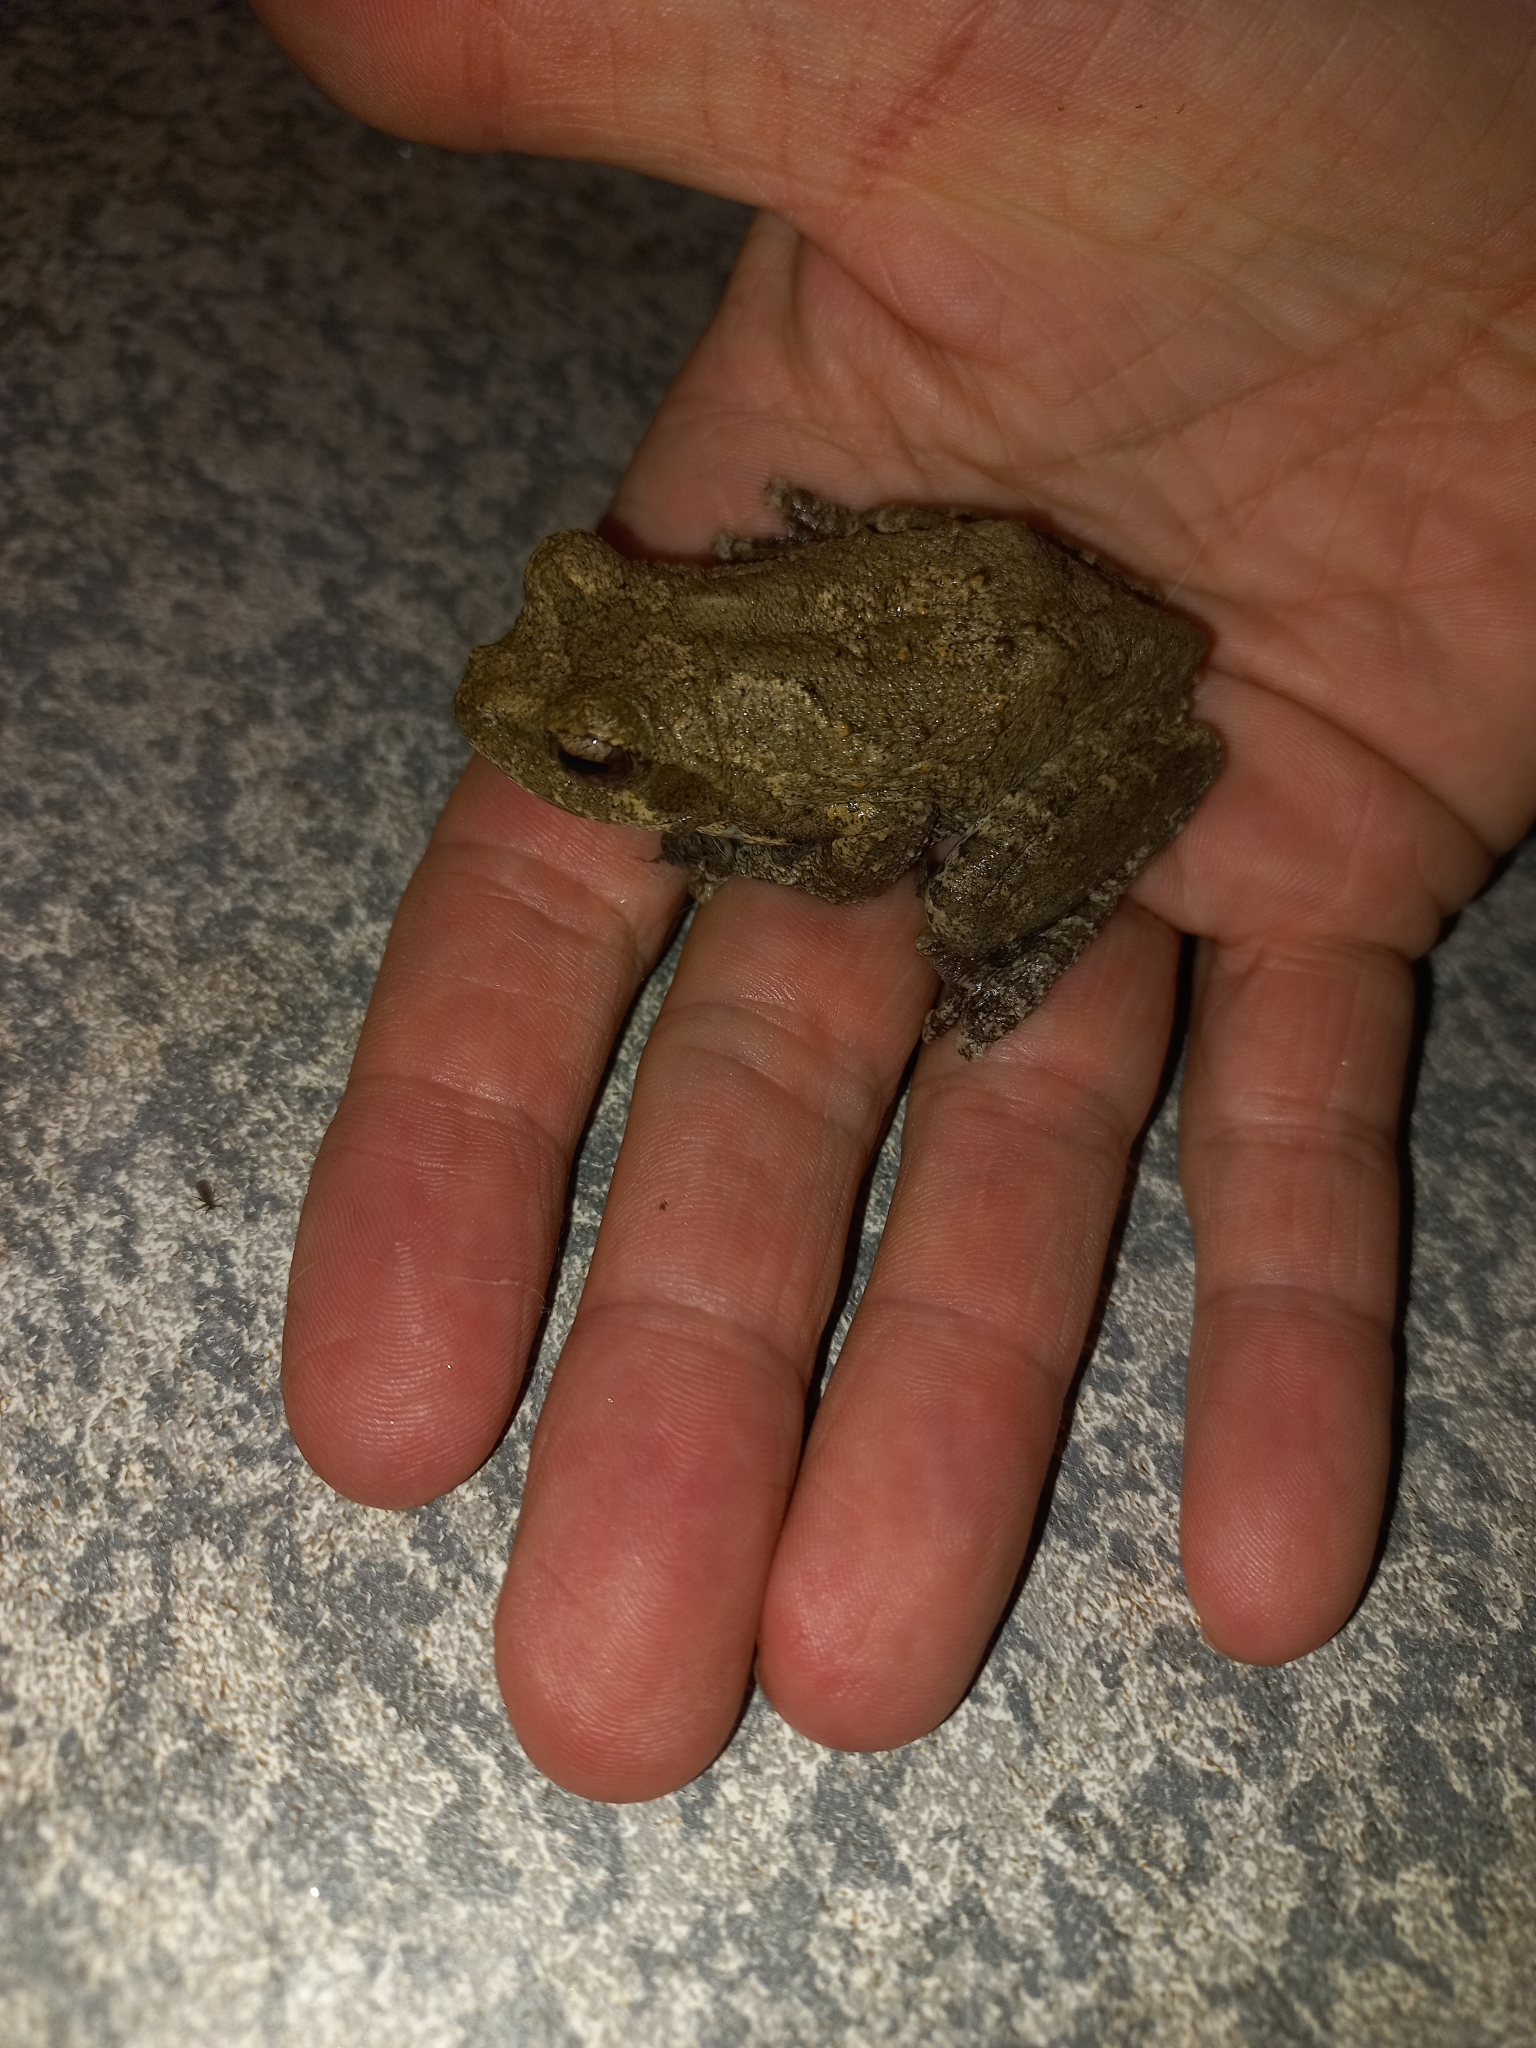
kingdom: Animalia
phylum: Chordata
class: Amphibia
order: Anura
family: Rhacophoridae
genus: Chiromantis
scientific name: Chiromantis xerampelina
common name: African gray treefrog
